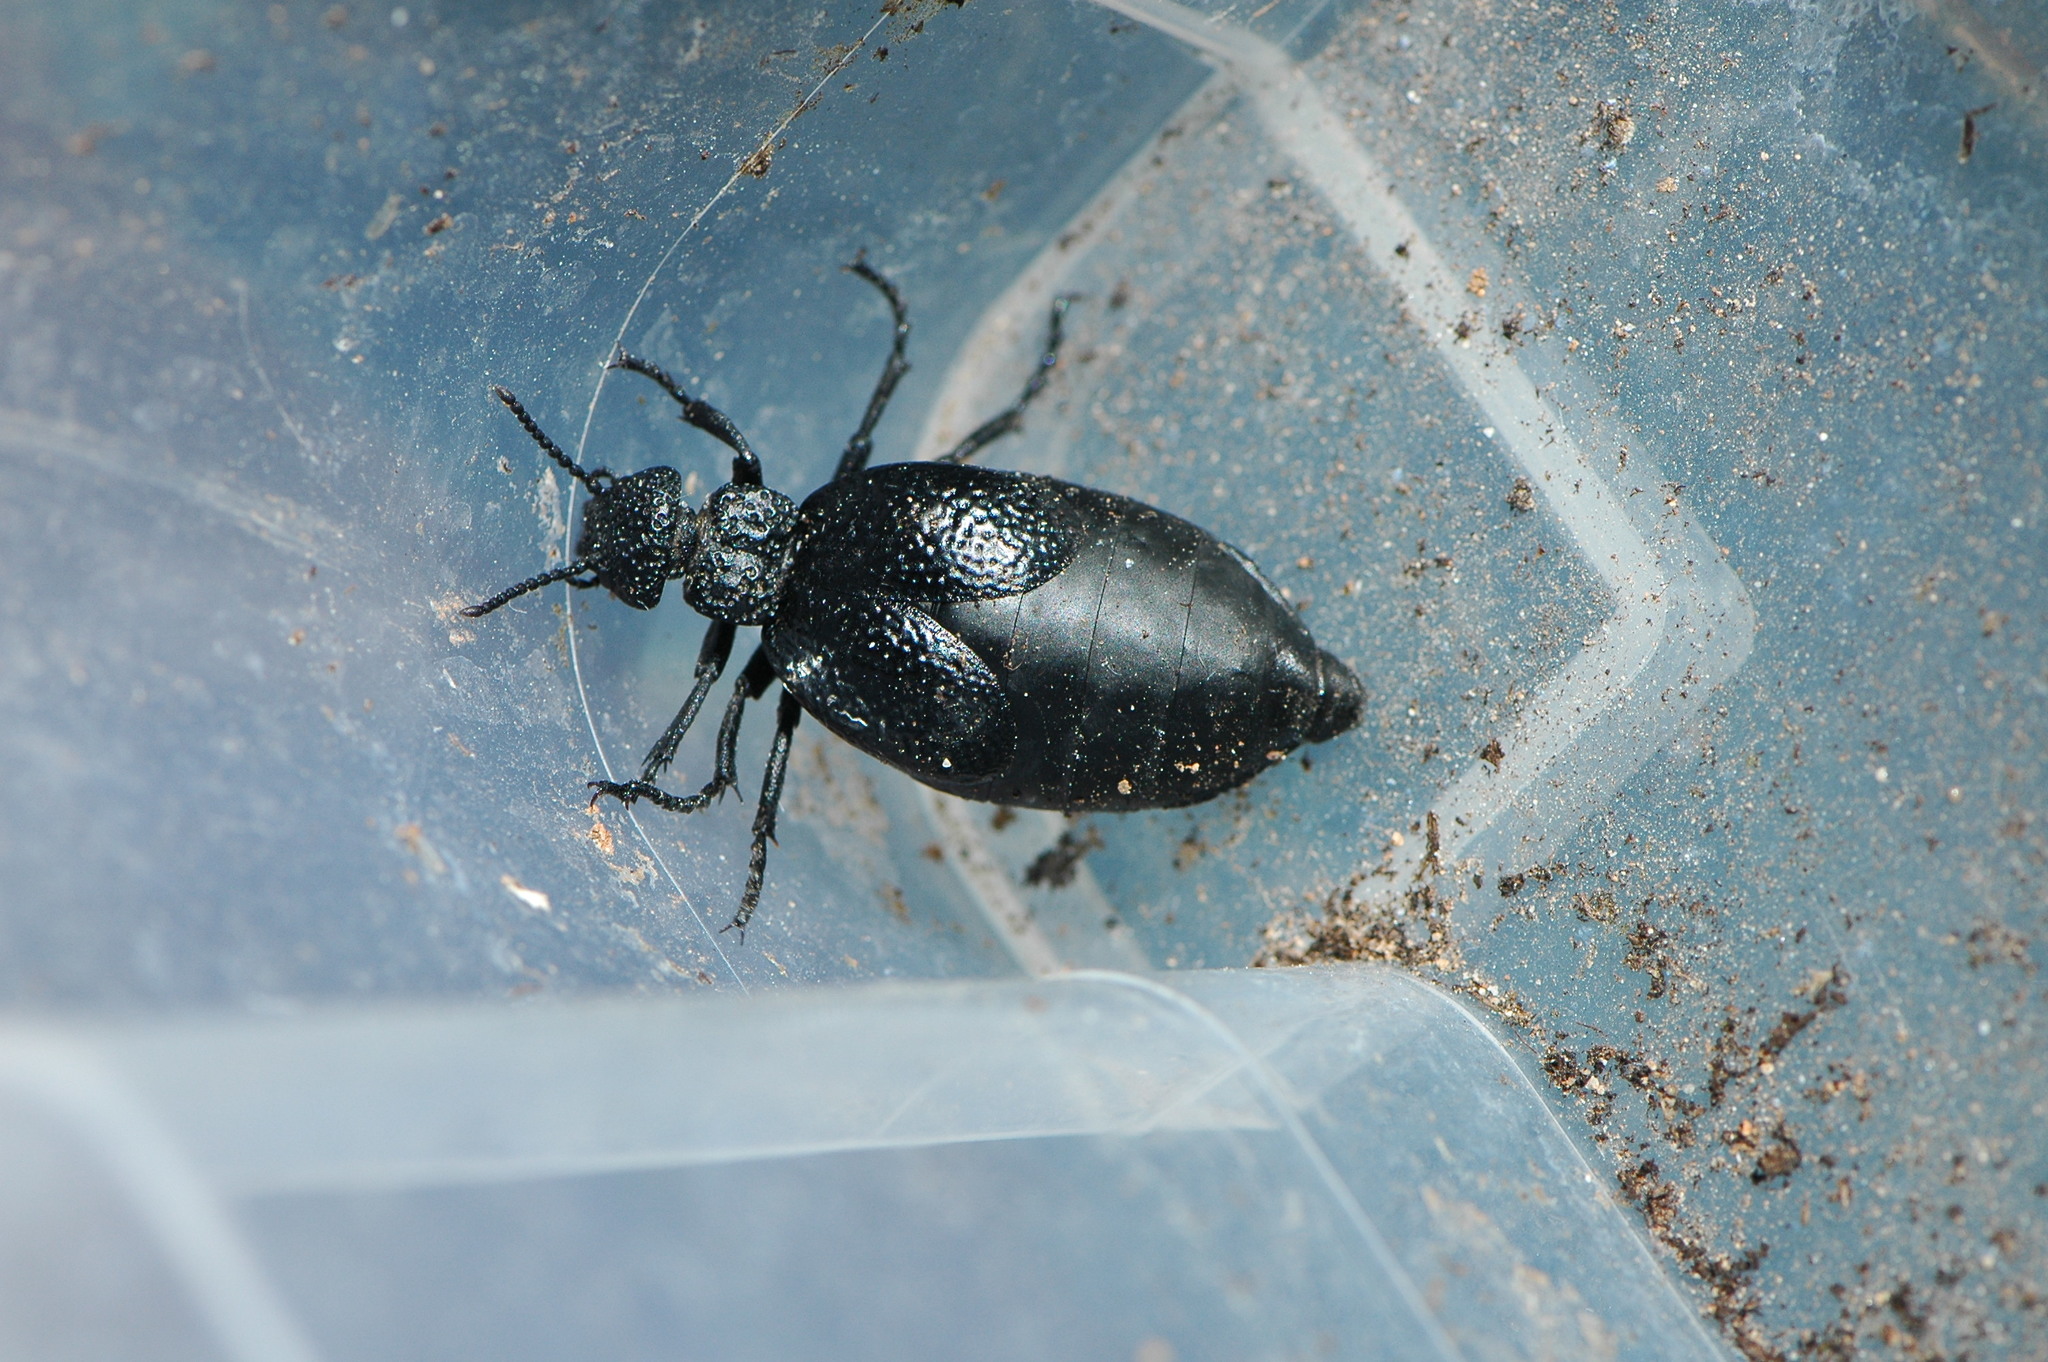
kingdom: Animalia
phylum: Arthropoda
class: Insecta
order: Coleoptera
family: Meloidae
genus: Meloe
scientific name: Meloe tuccius
